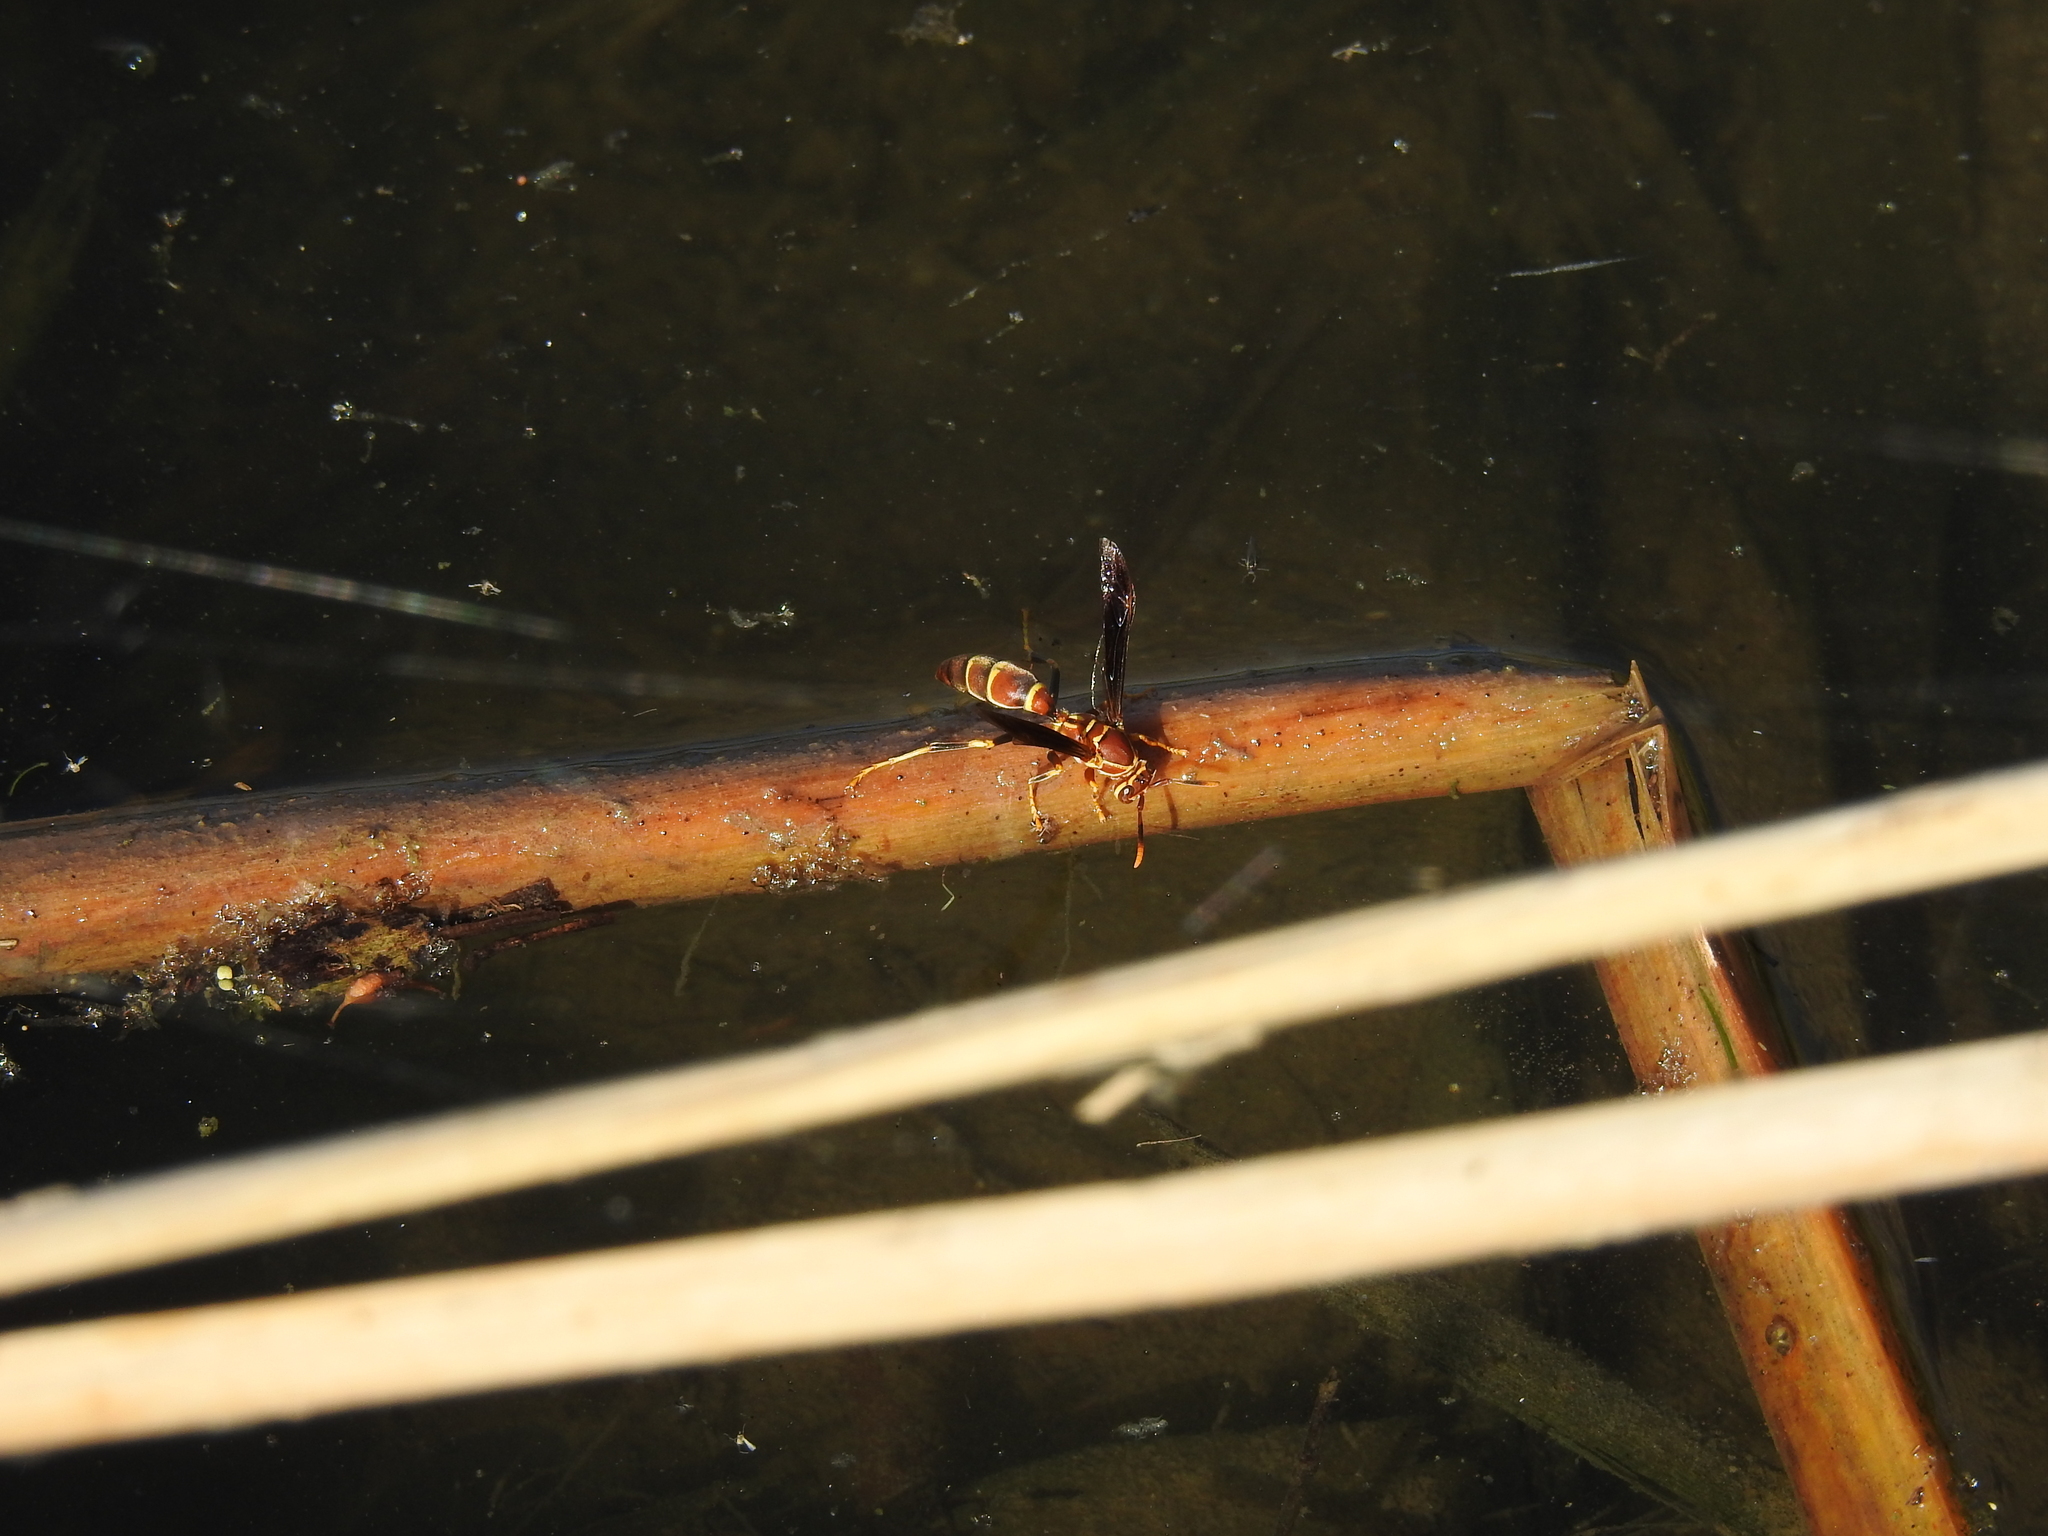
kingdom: Animalia
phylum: Arthropoda
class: Insecta
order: Hymenoptera
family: Eumenidae
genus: Polistes
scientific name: Polistes arizonensis
